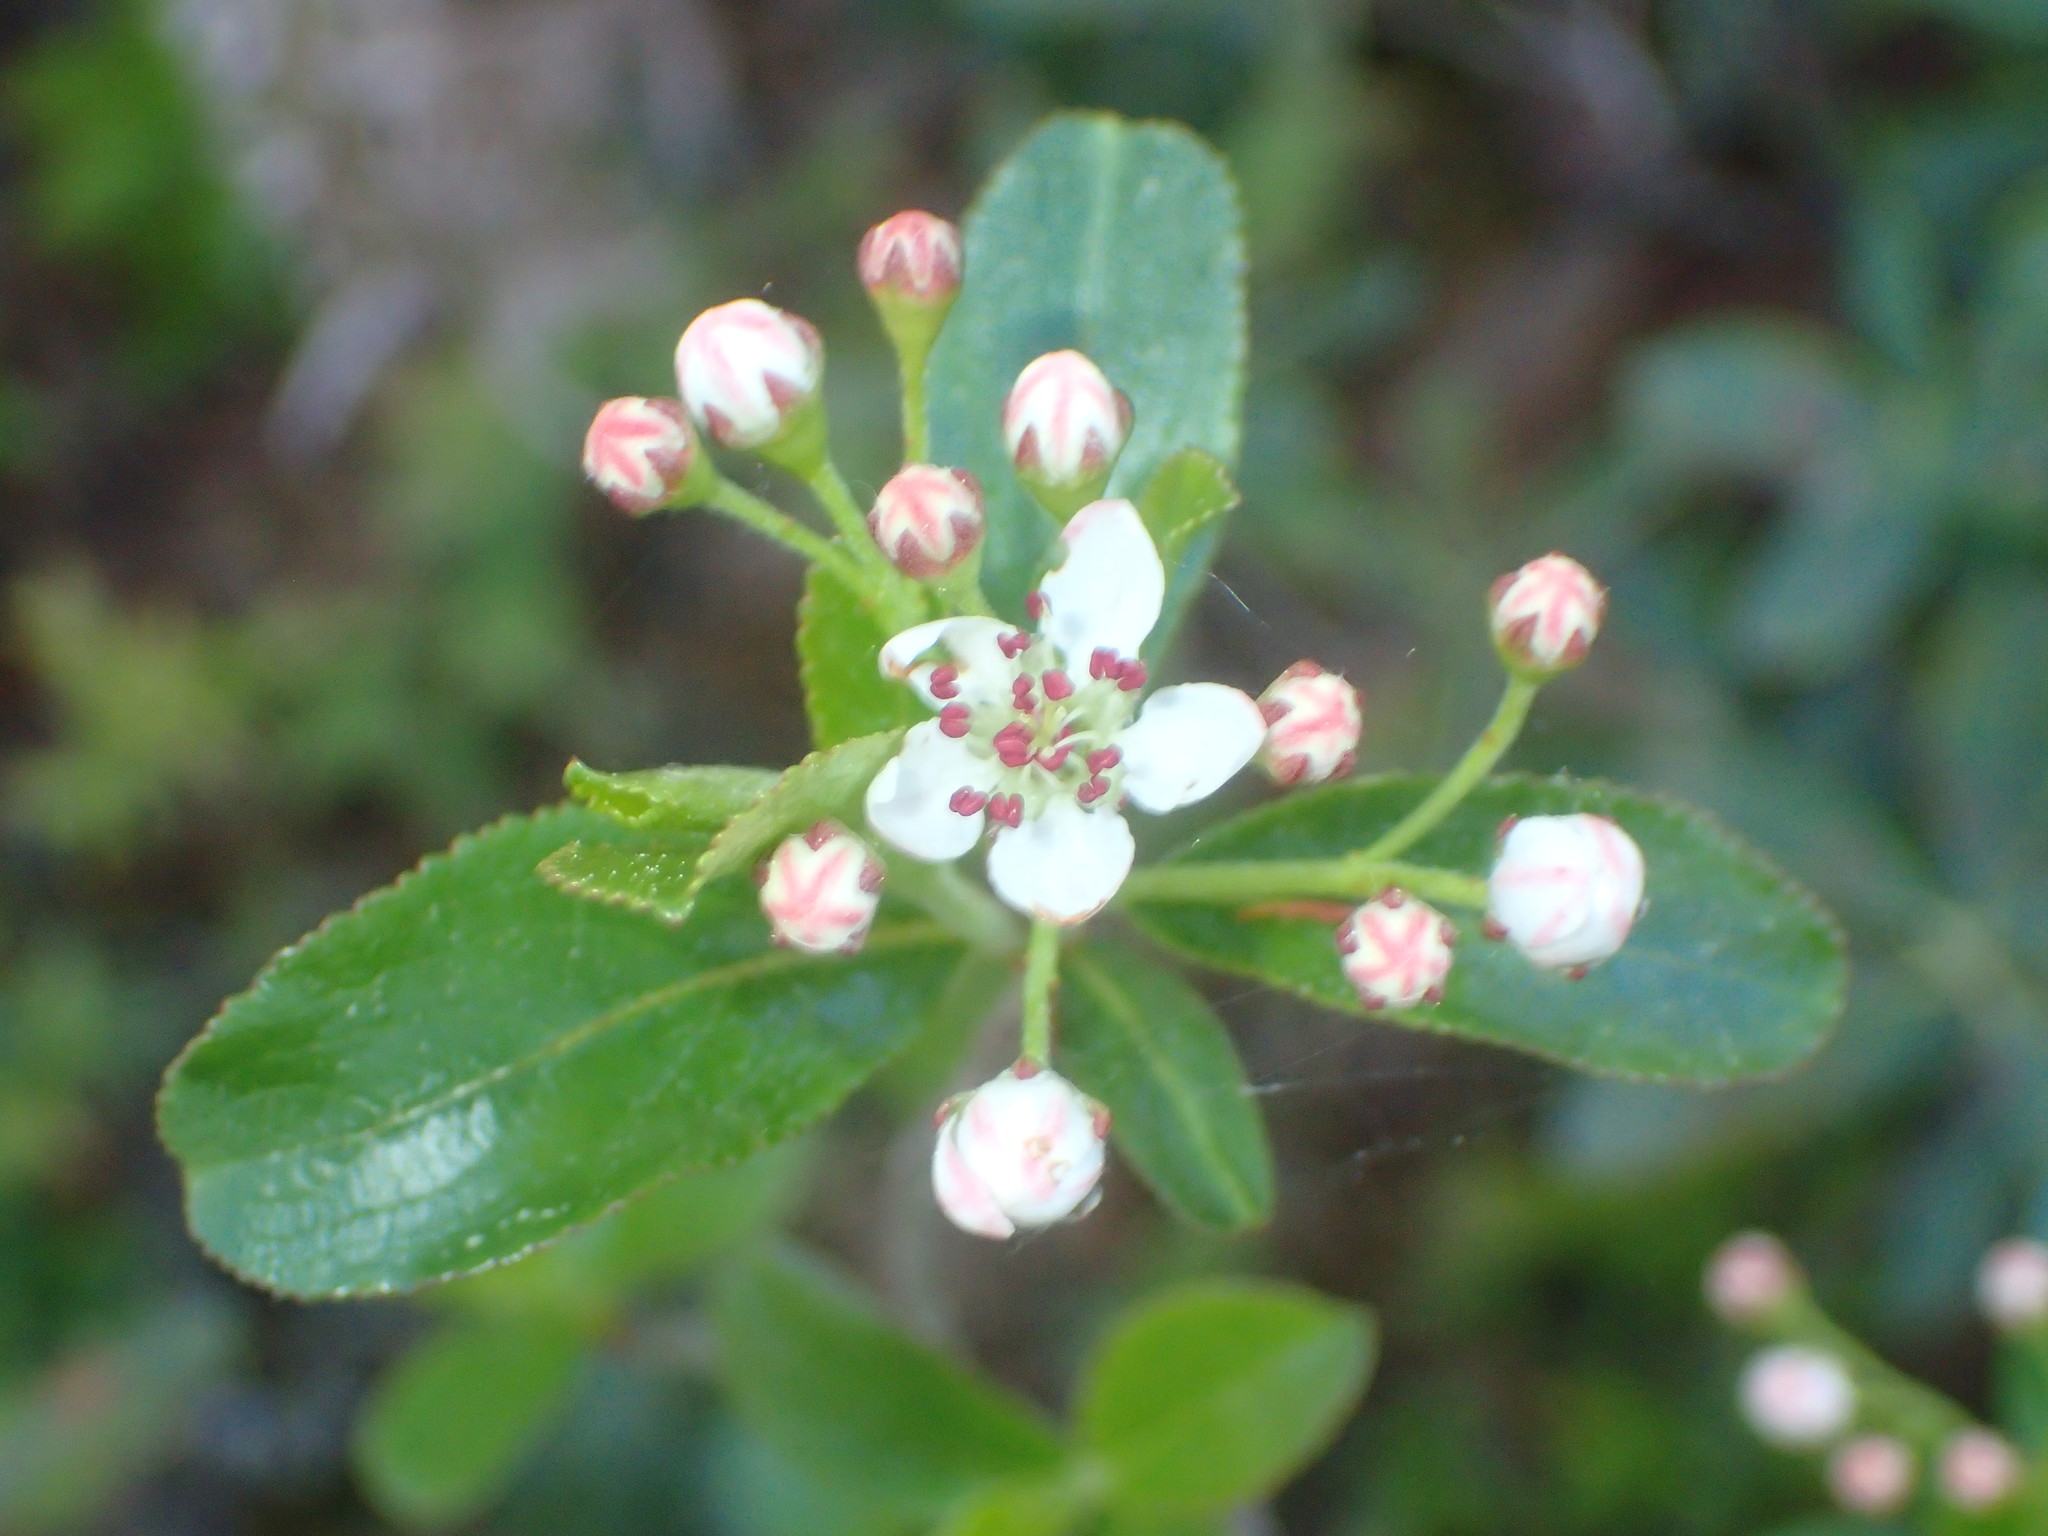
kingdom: Plantae
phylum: Tracheophyta
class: Magnoliopsida
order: Rosales
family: Rosaceae
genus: Aronia
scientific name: Aronia melanocarpa
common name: Black chokeberry
